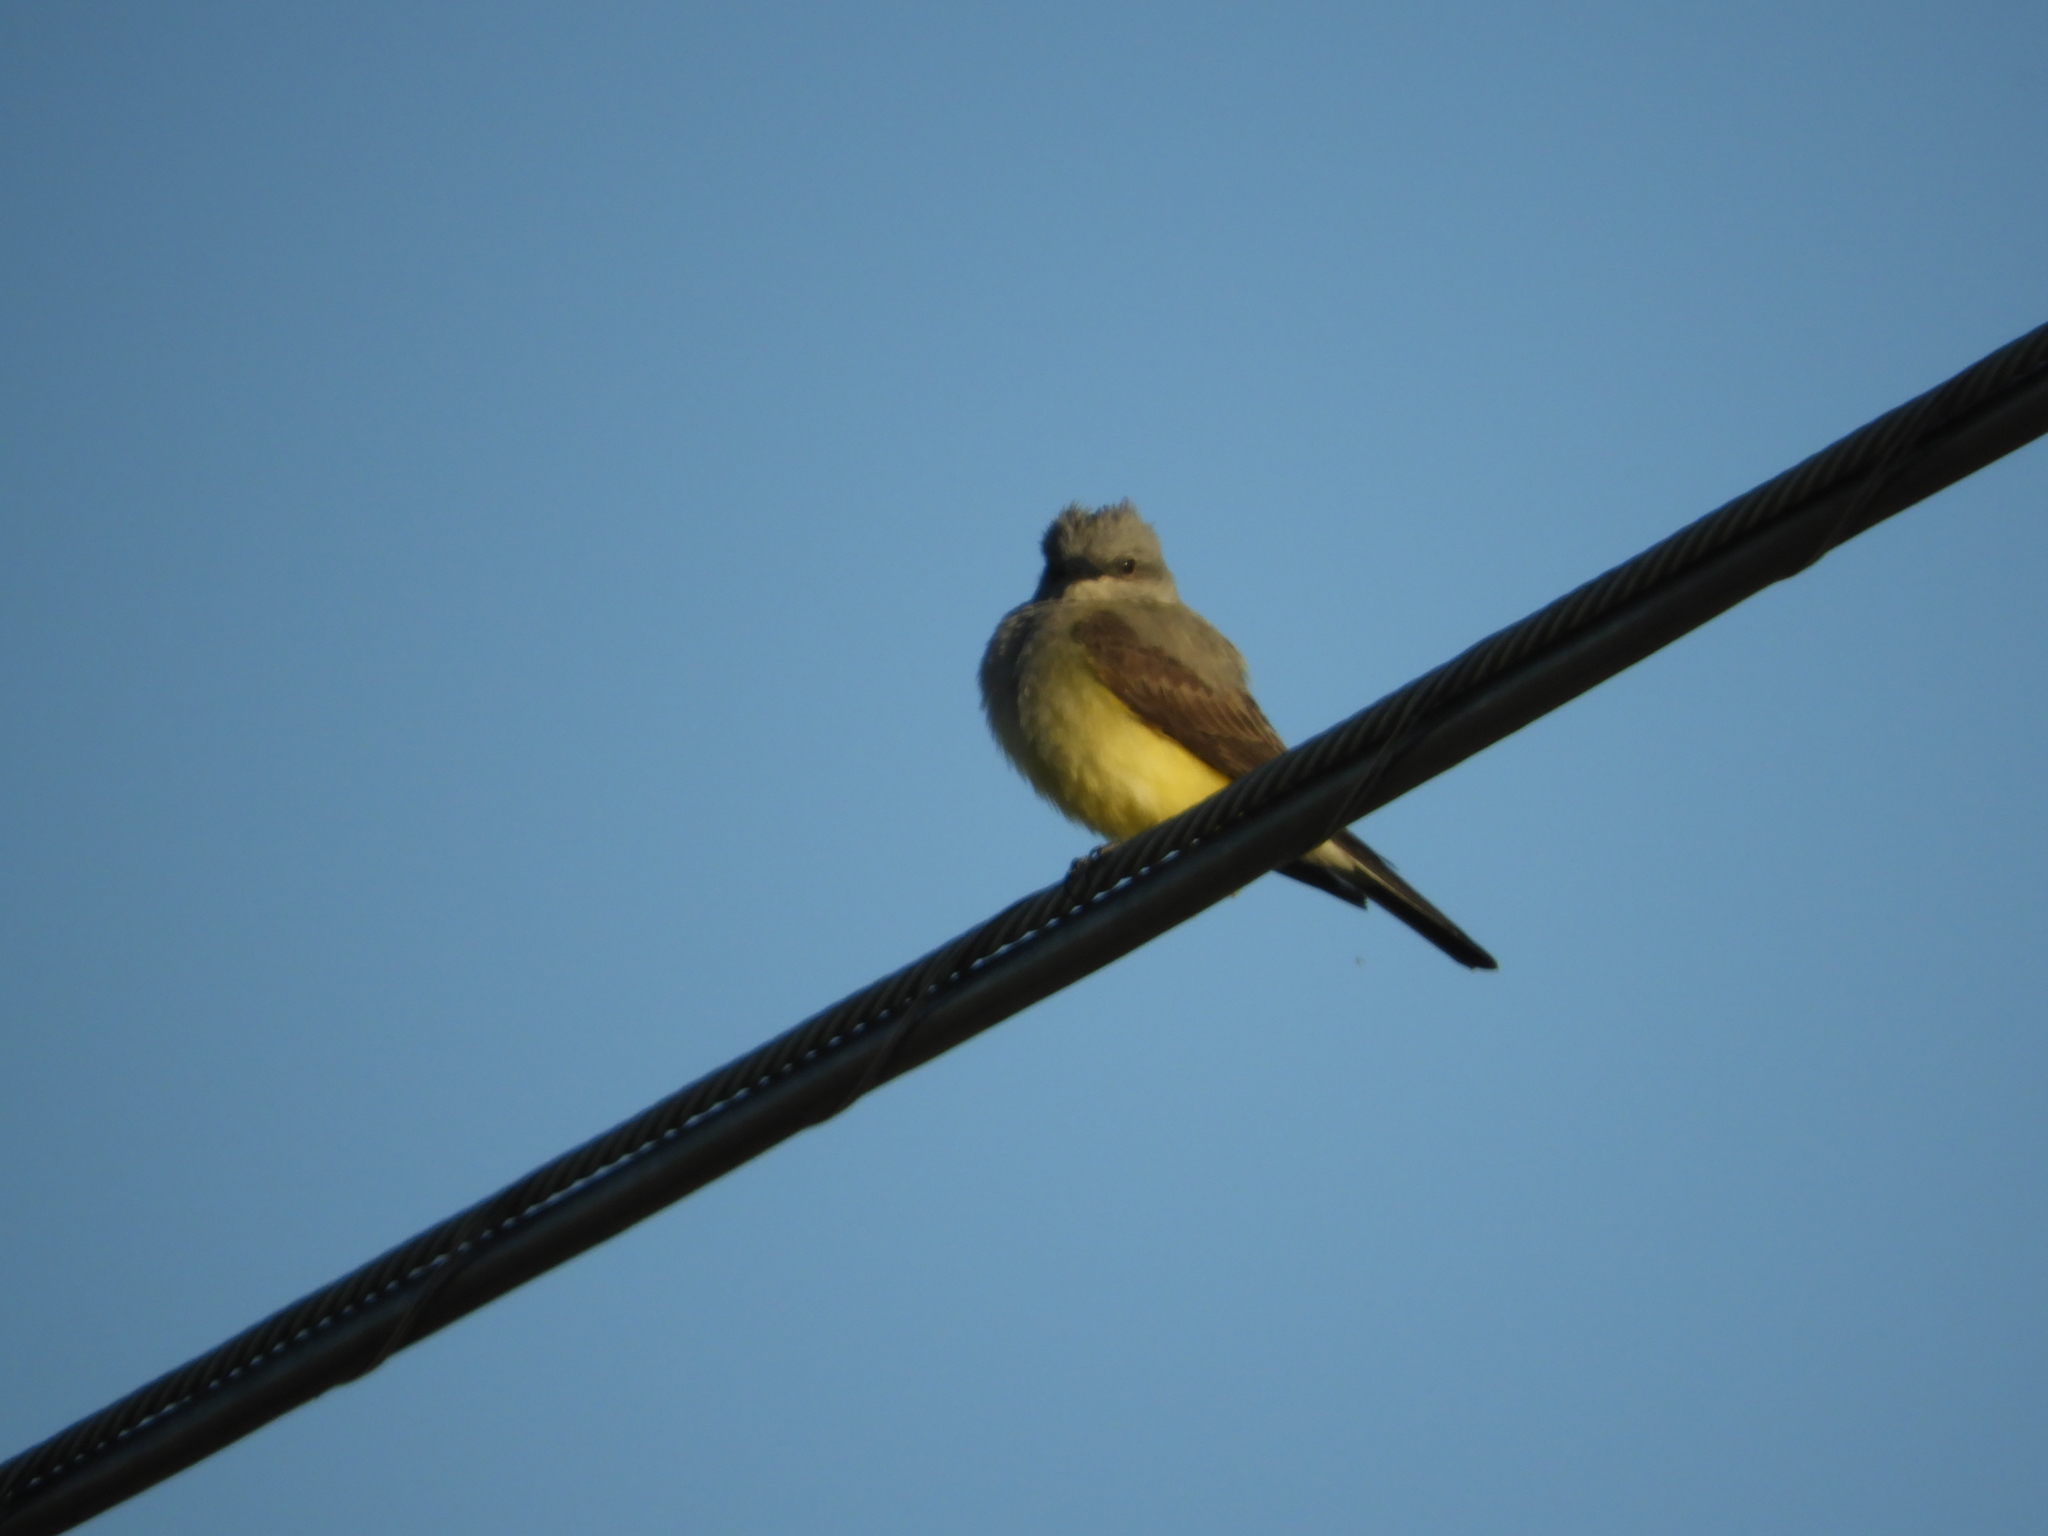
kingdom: Animalia
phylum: Chordata
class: Aves
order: Passeriformes
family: Tyrannidae
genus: Tyrannus
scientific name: Tyrannus verticalis
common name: Western kingbird
